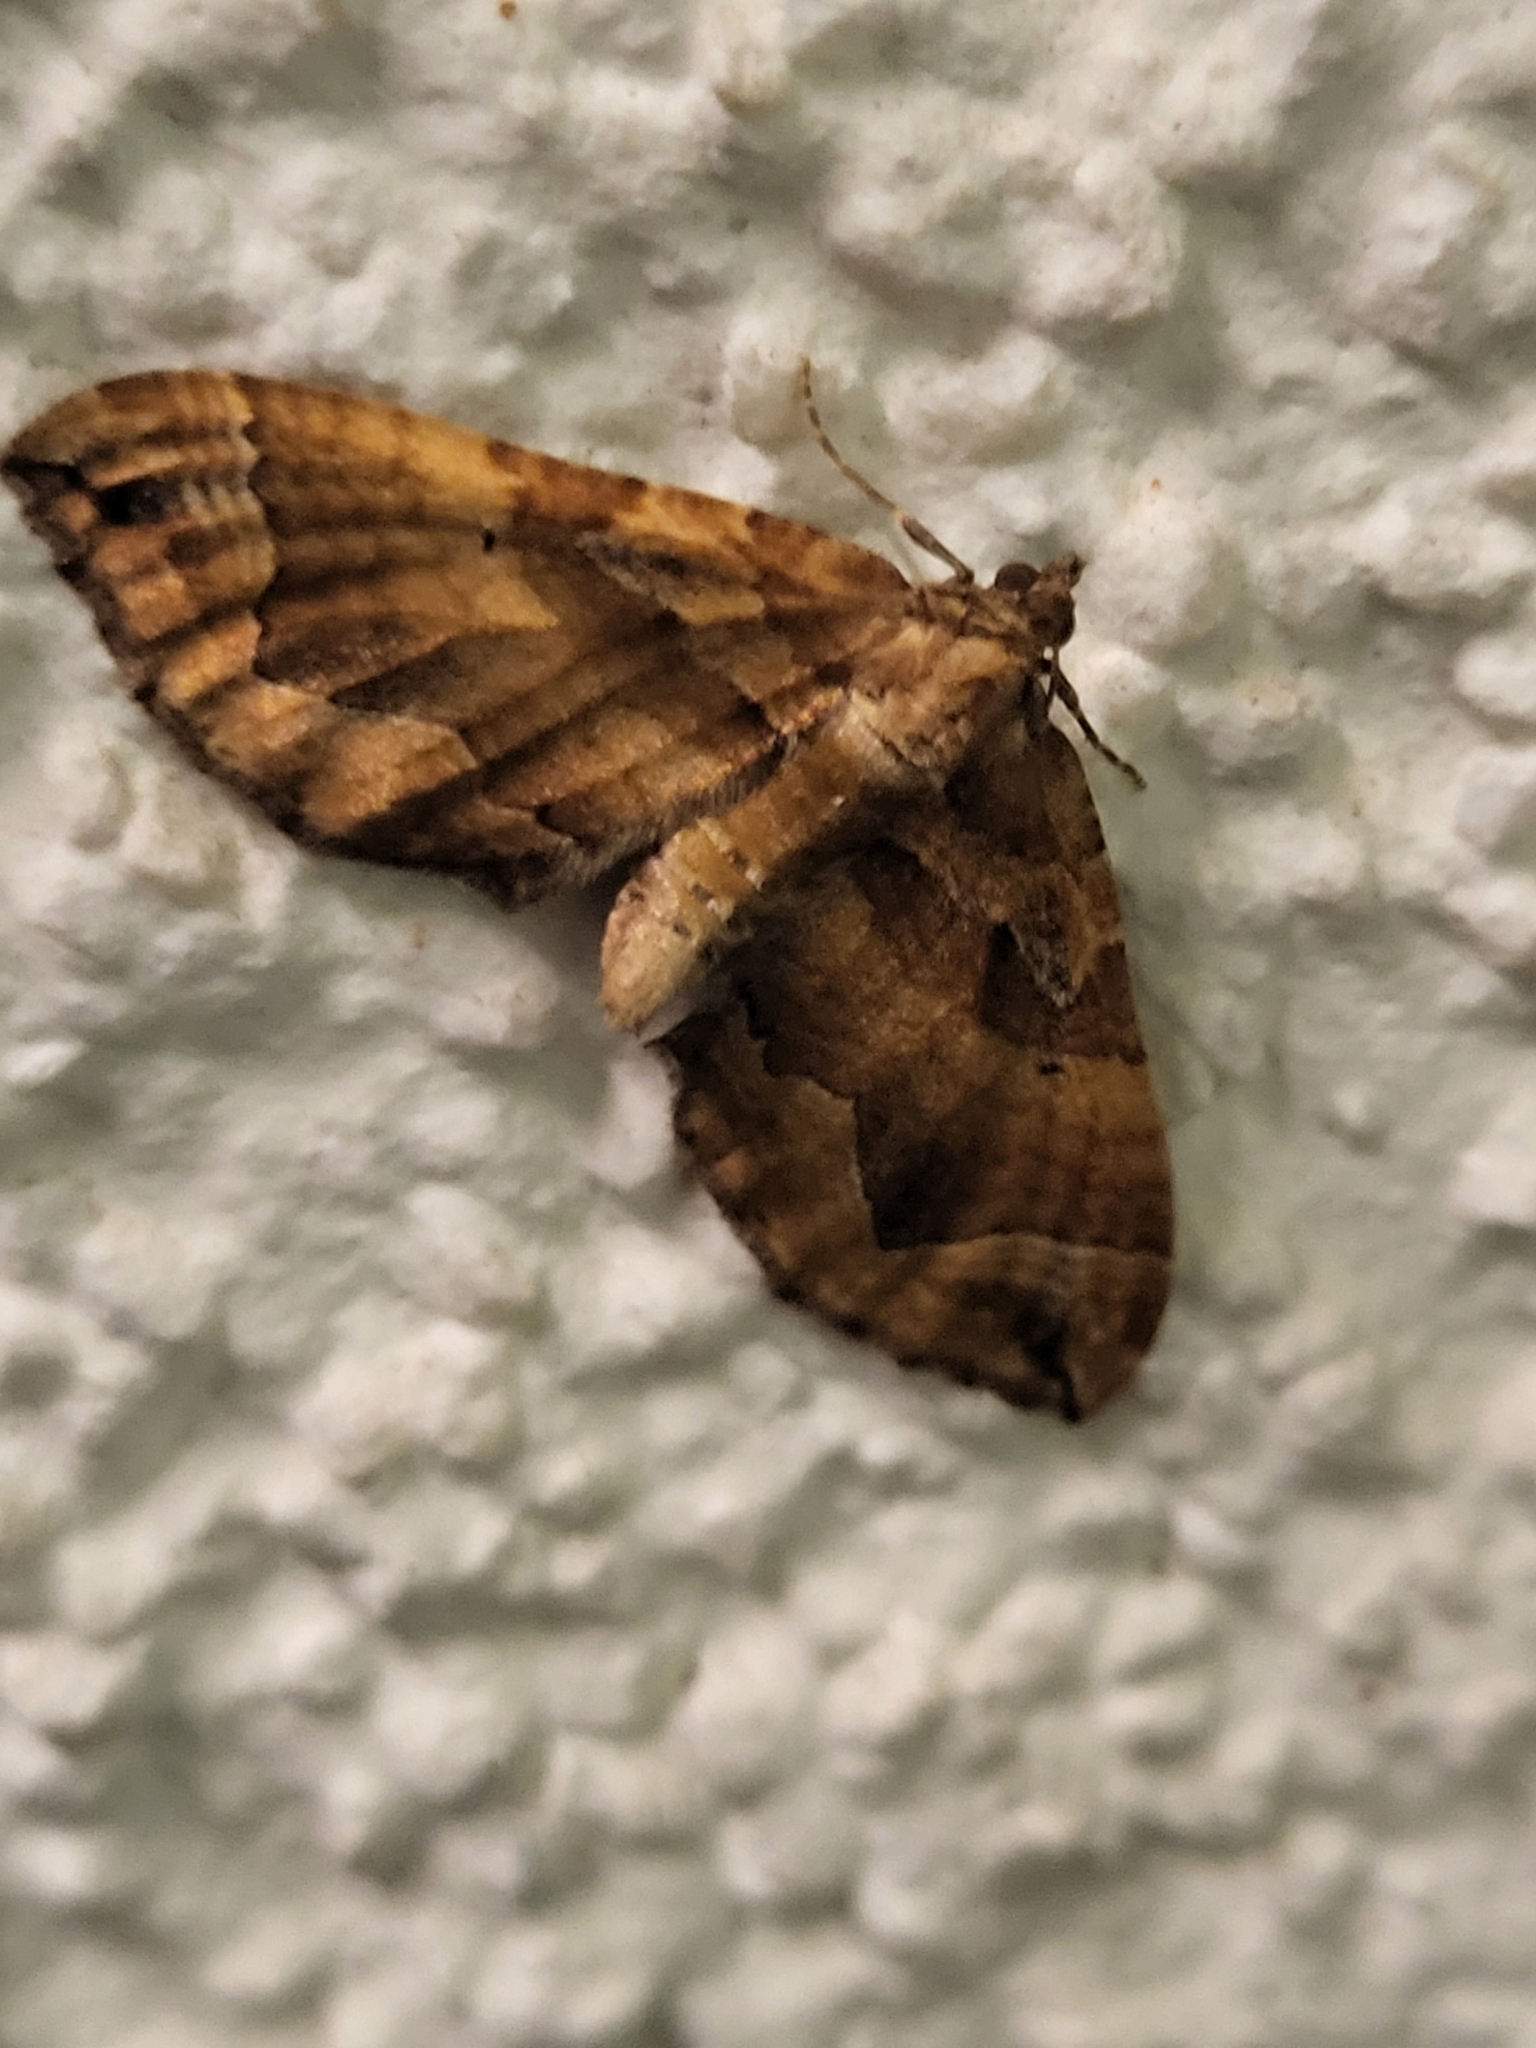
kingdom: Animalia
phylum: Arthropoda
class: Insecta
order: Lepidoptera
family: Geometridae
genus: Pelurga
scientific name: Pelurga comitata
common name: Dark spinach
